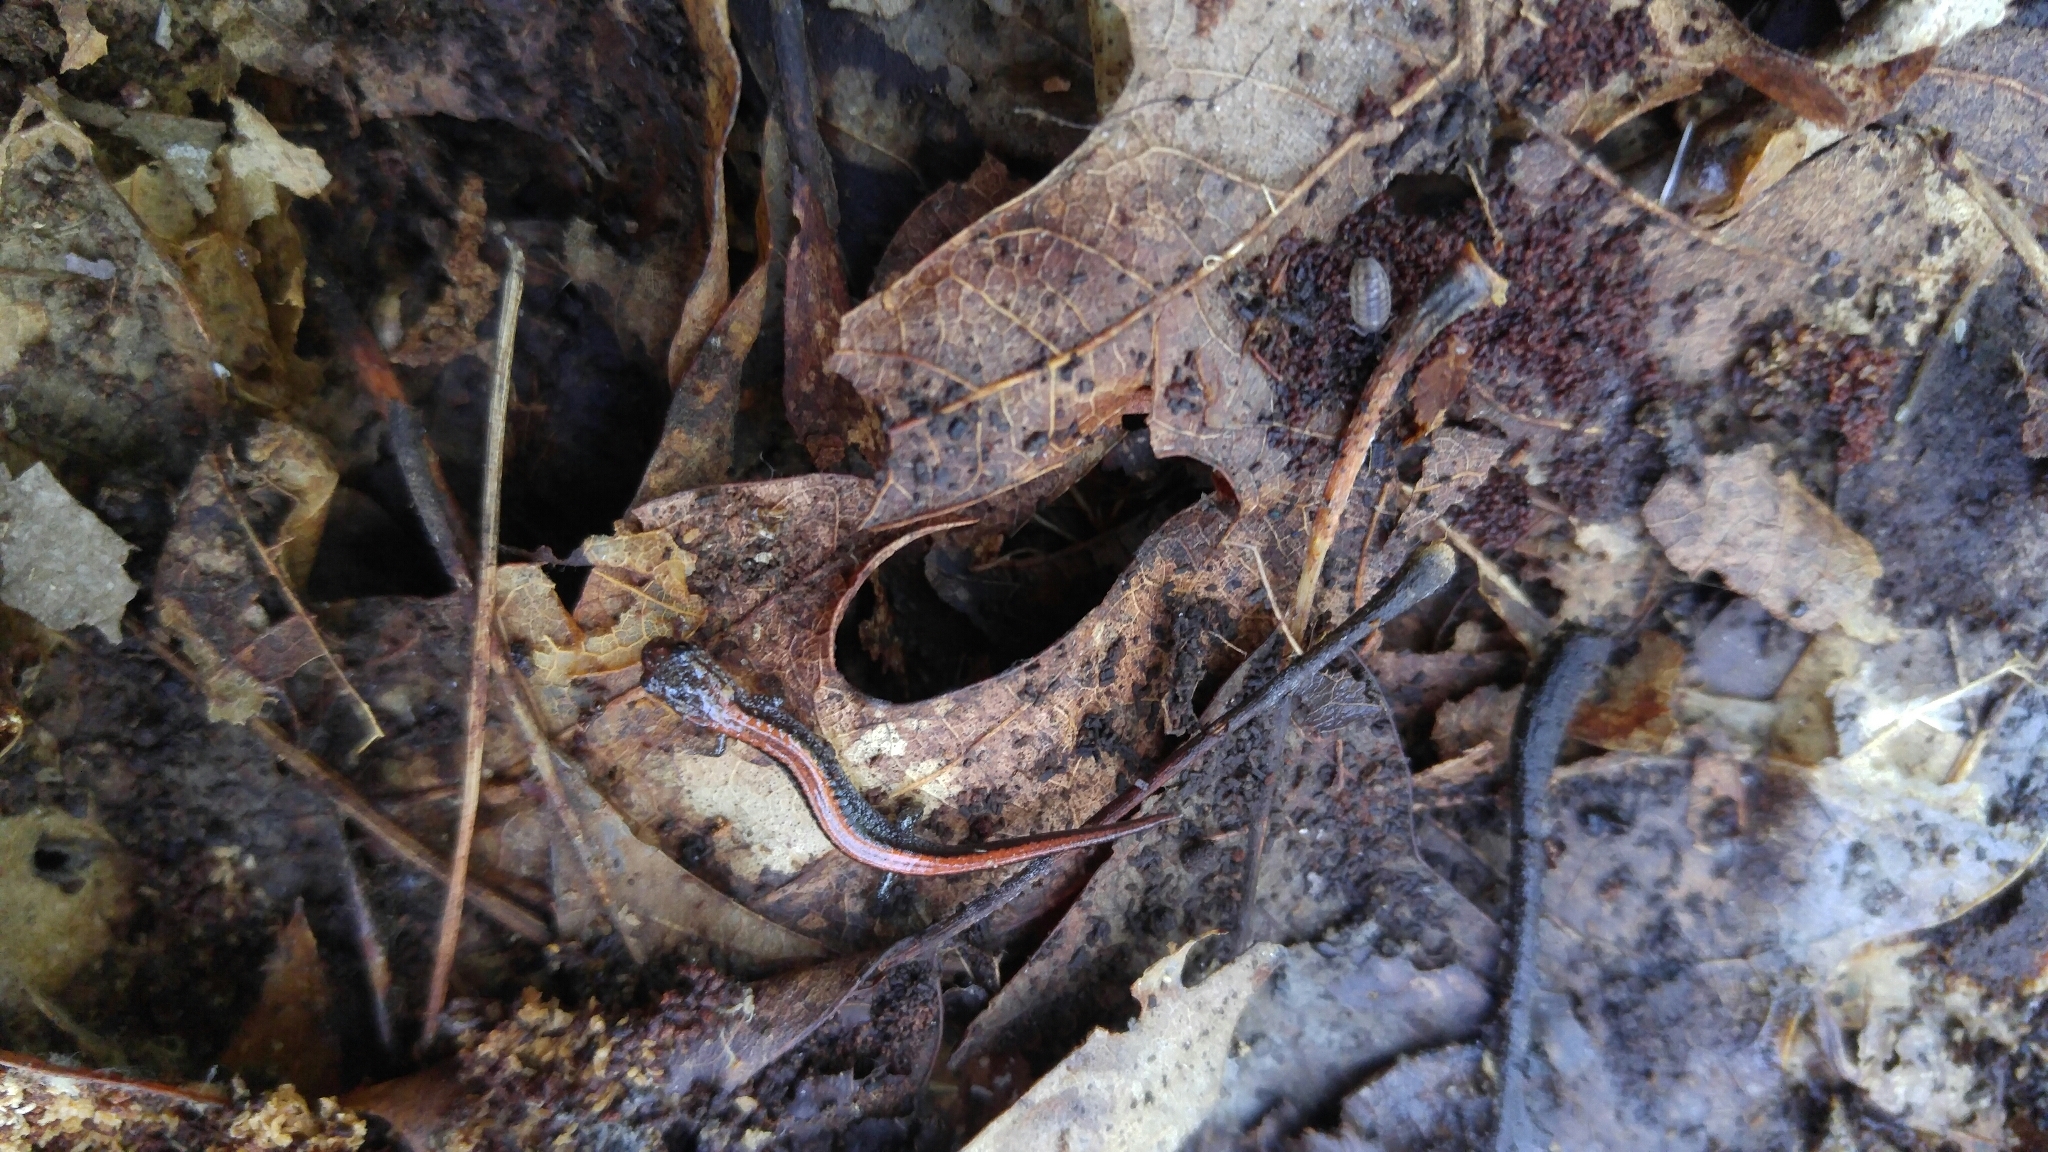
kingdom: Animalia
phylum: Chordata
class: Amphibia
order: Caudata
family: Plethodontidae
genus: Plethodon
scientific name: Plethodon cinereus
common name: Redback salamander
